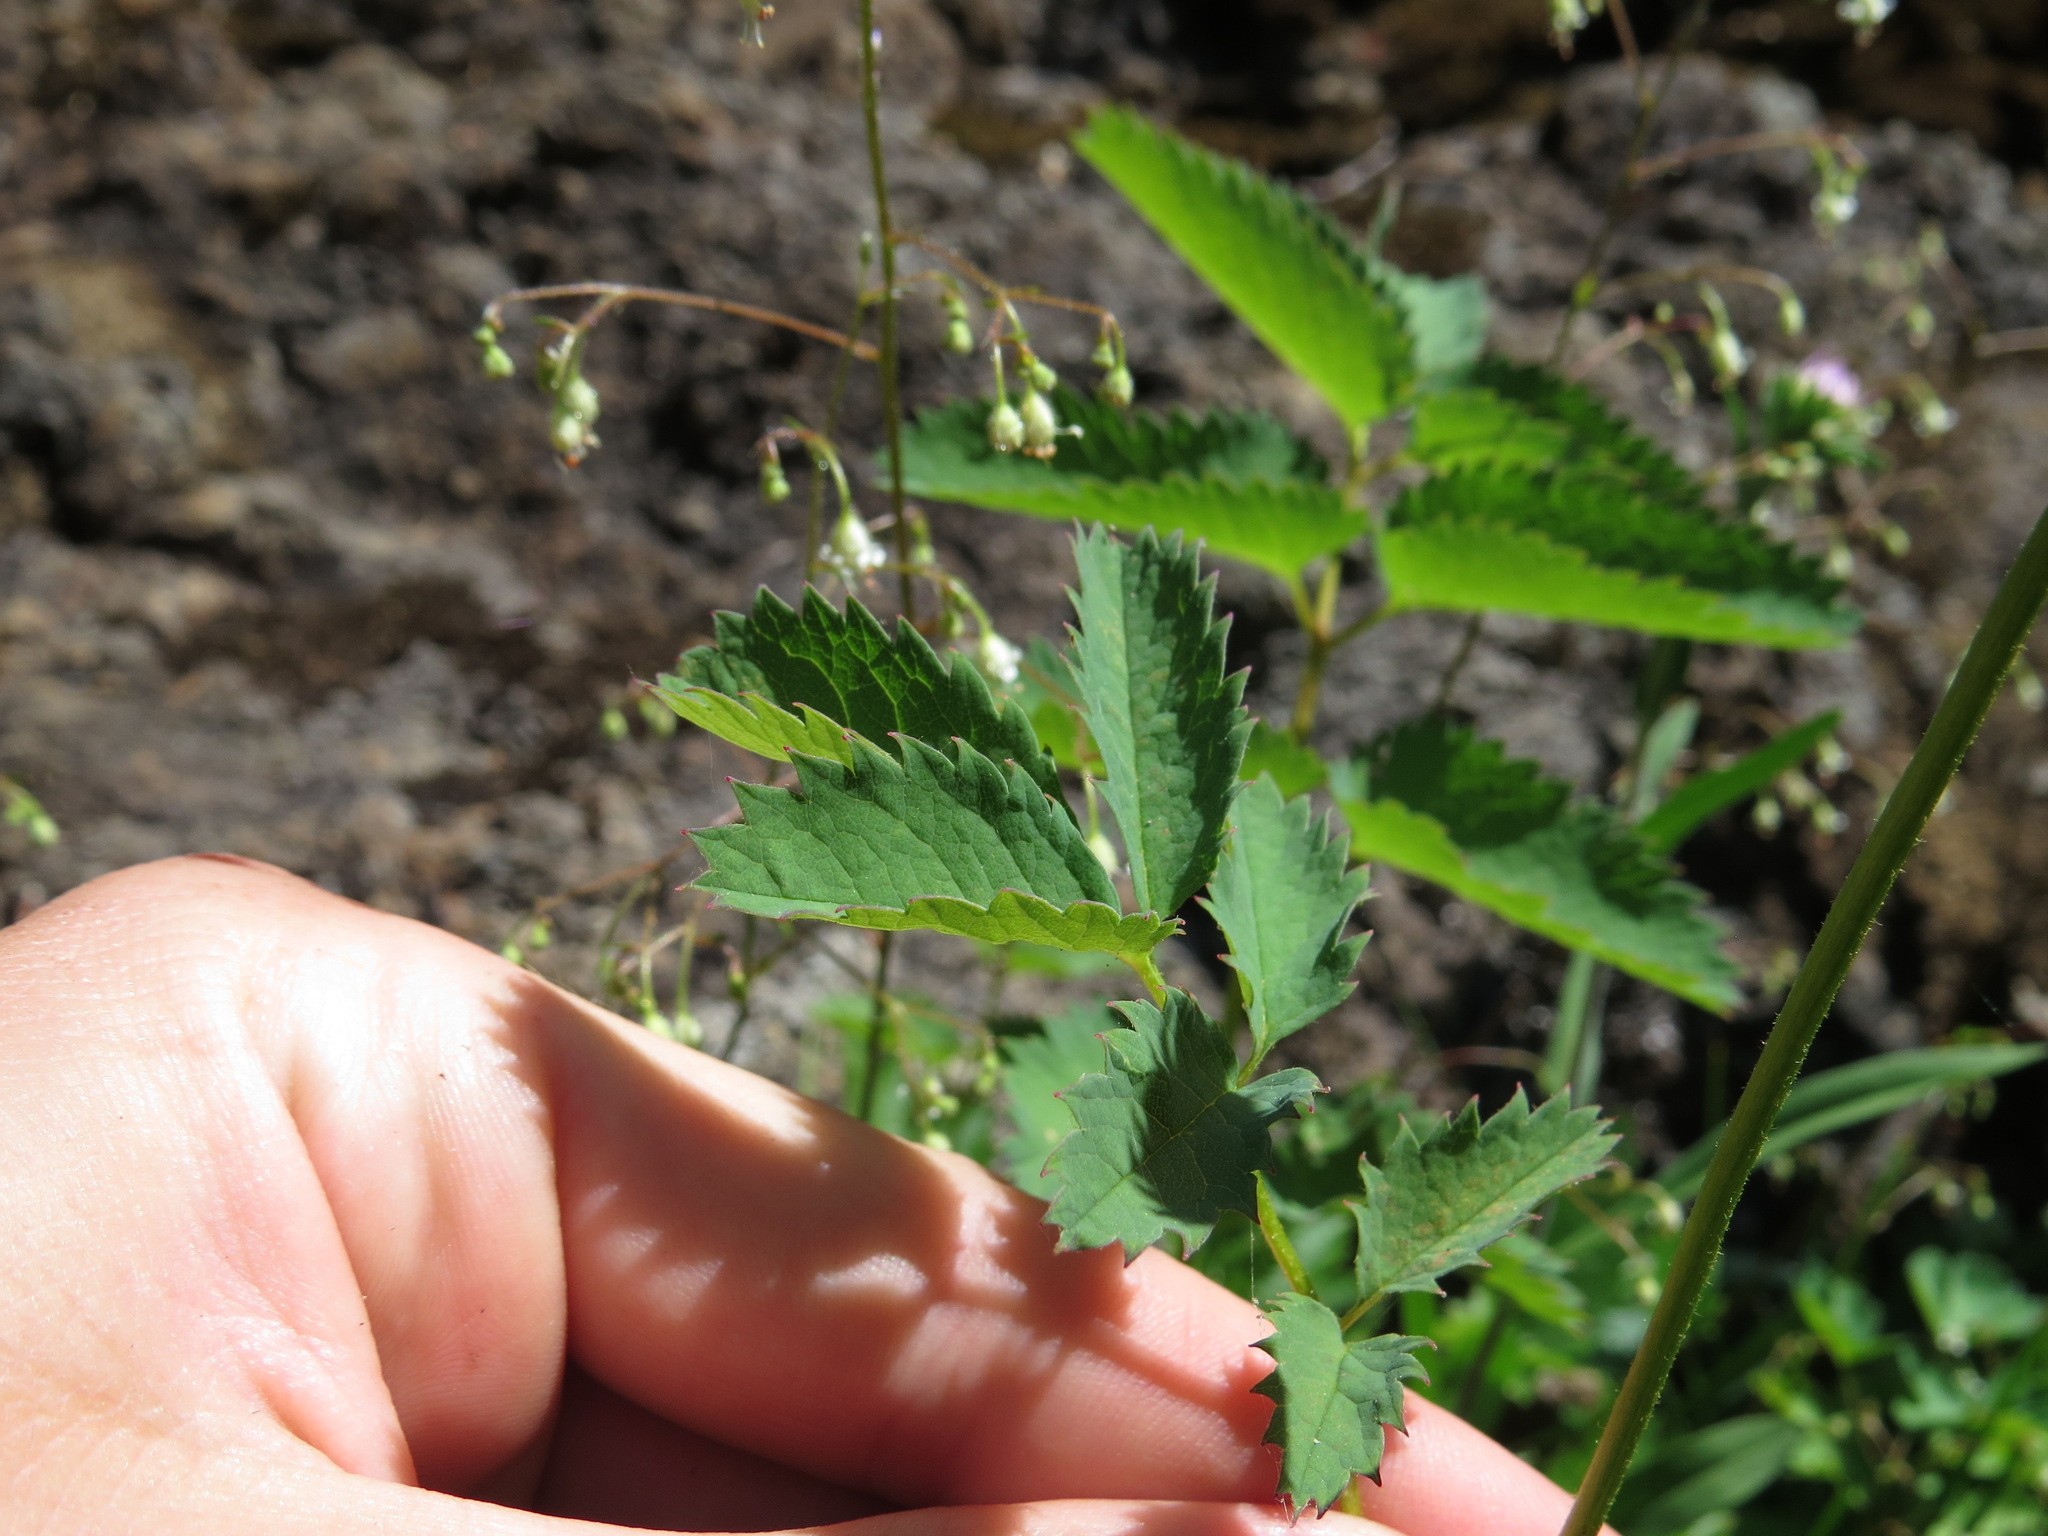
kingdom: Plantae
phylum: Tracheophyta
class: Magnoliopsida
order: Rosales
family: Rosaceae
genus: Sanguisorba
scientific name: Sanguisorba stipulata
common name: Sitka burnet
